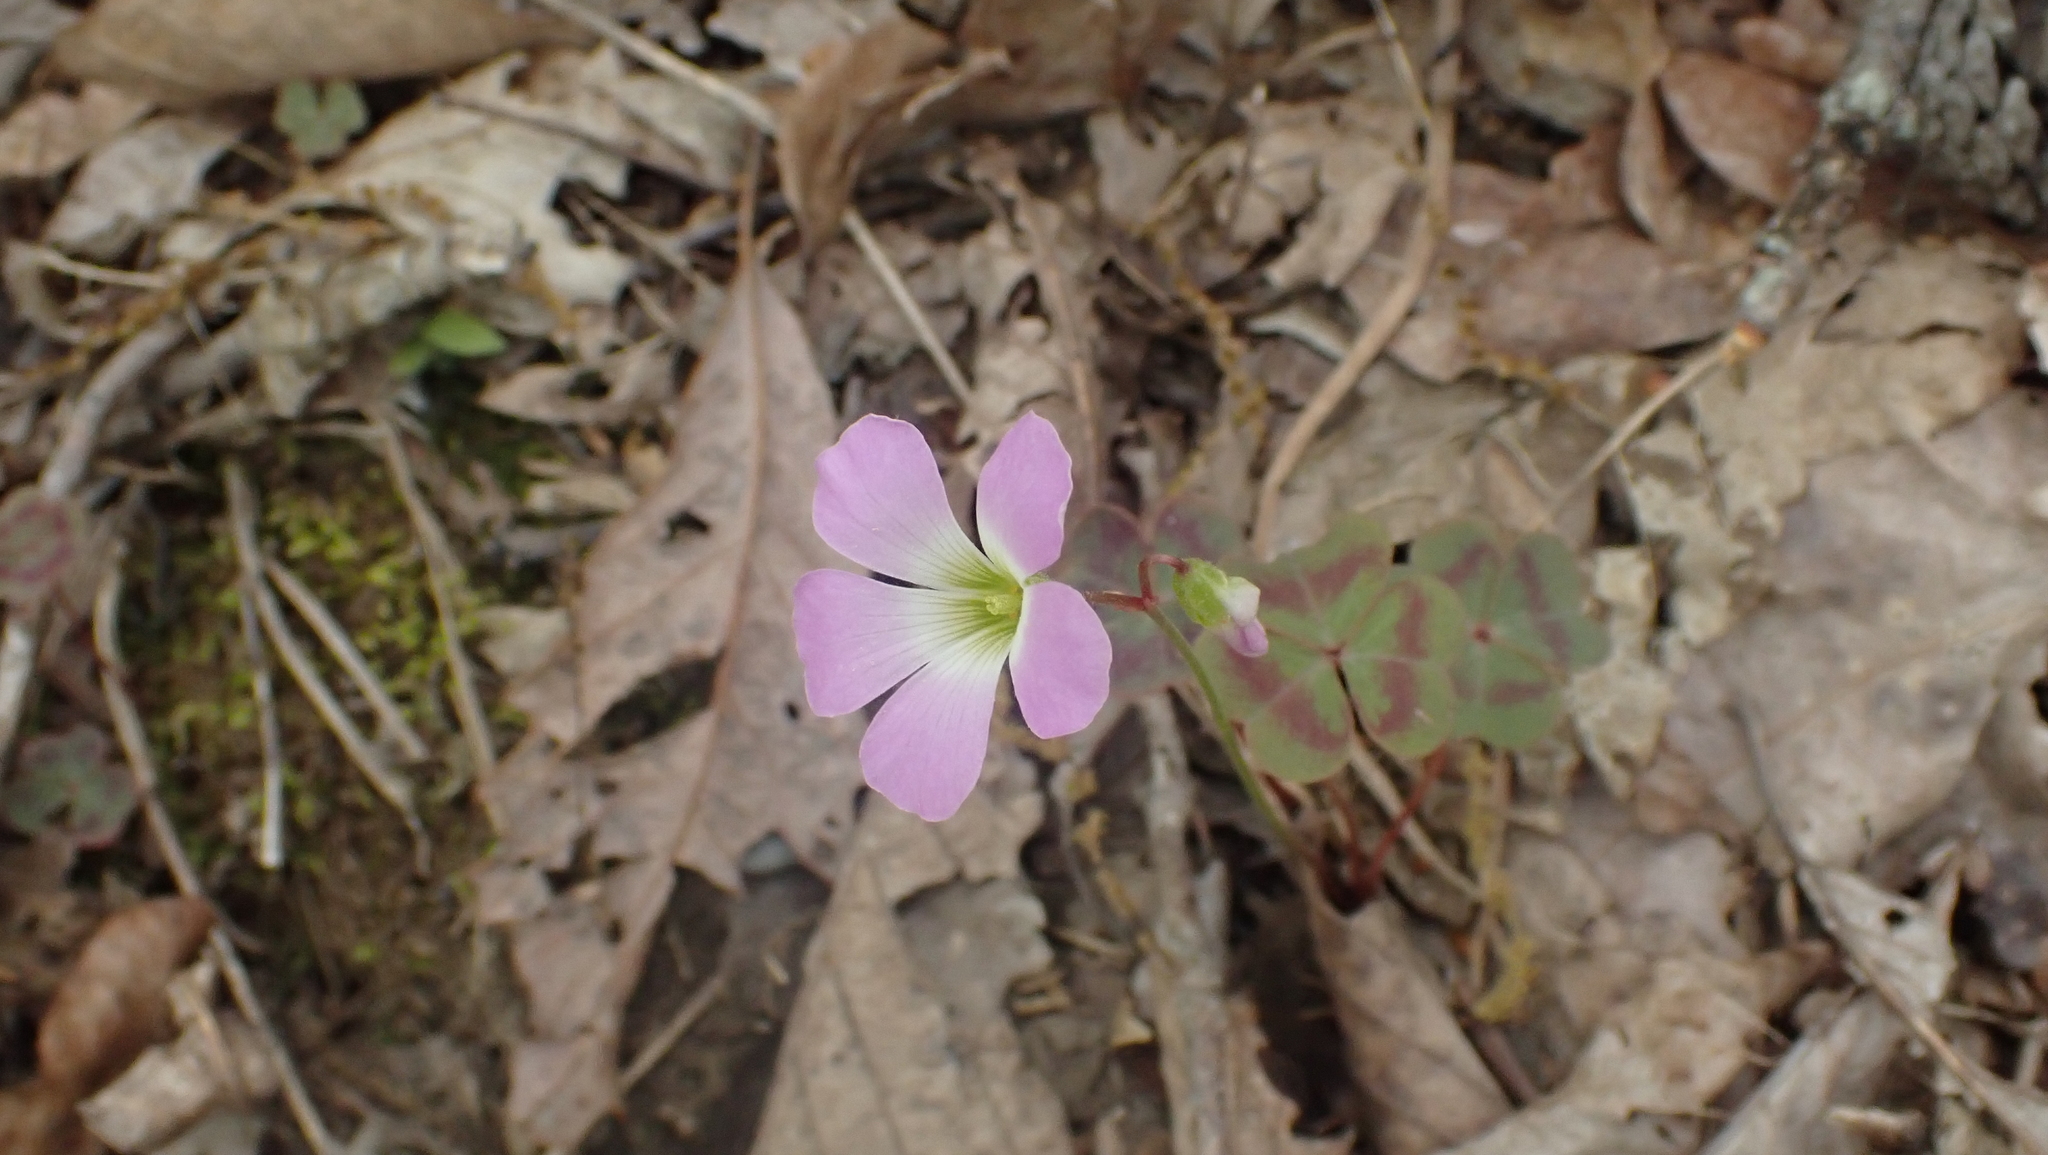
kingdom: Plantae
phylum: Tracheophyta
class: Magnoliopsida
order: Oxalidales
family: Oxalidaceae
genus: Oxalis
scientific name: Oxalis violacea
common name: Violet wood-sorrel
